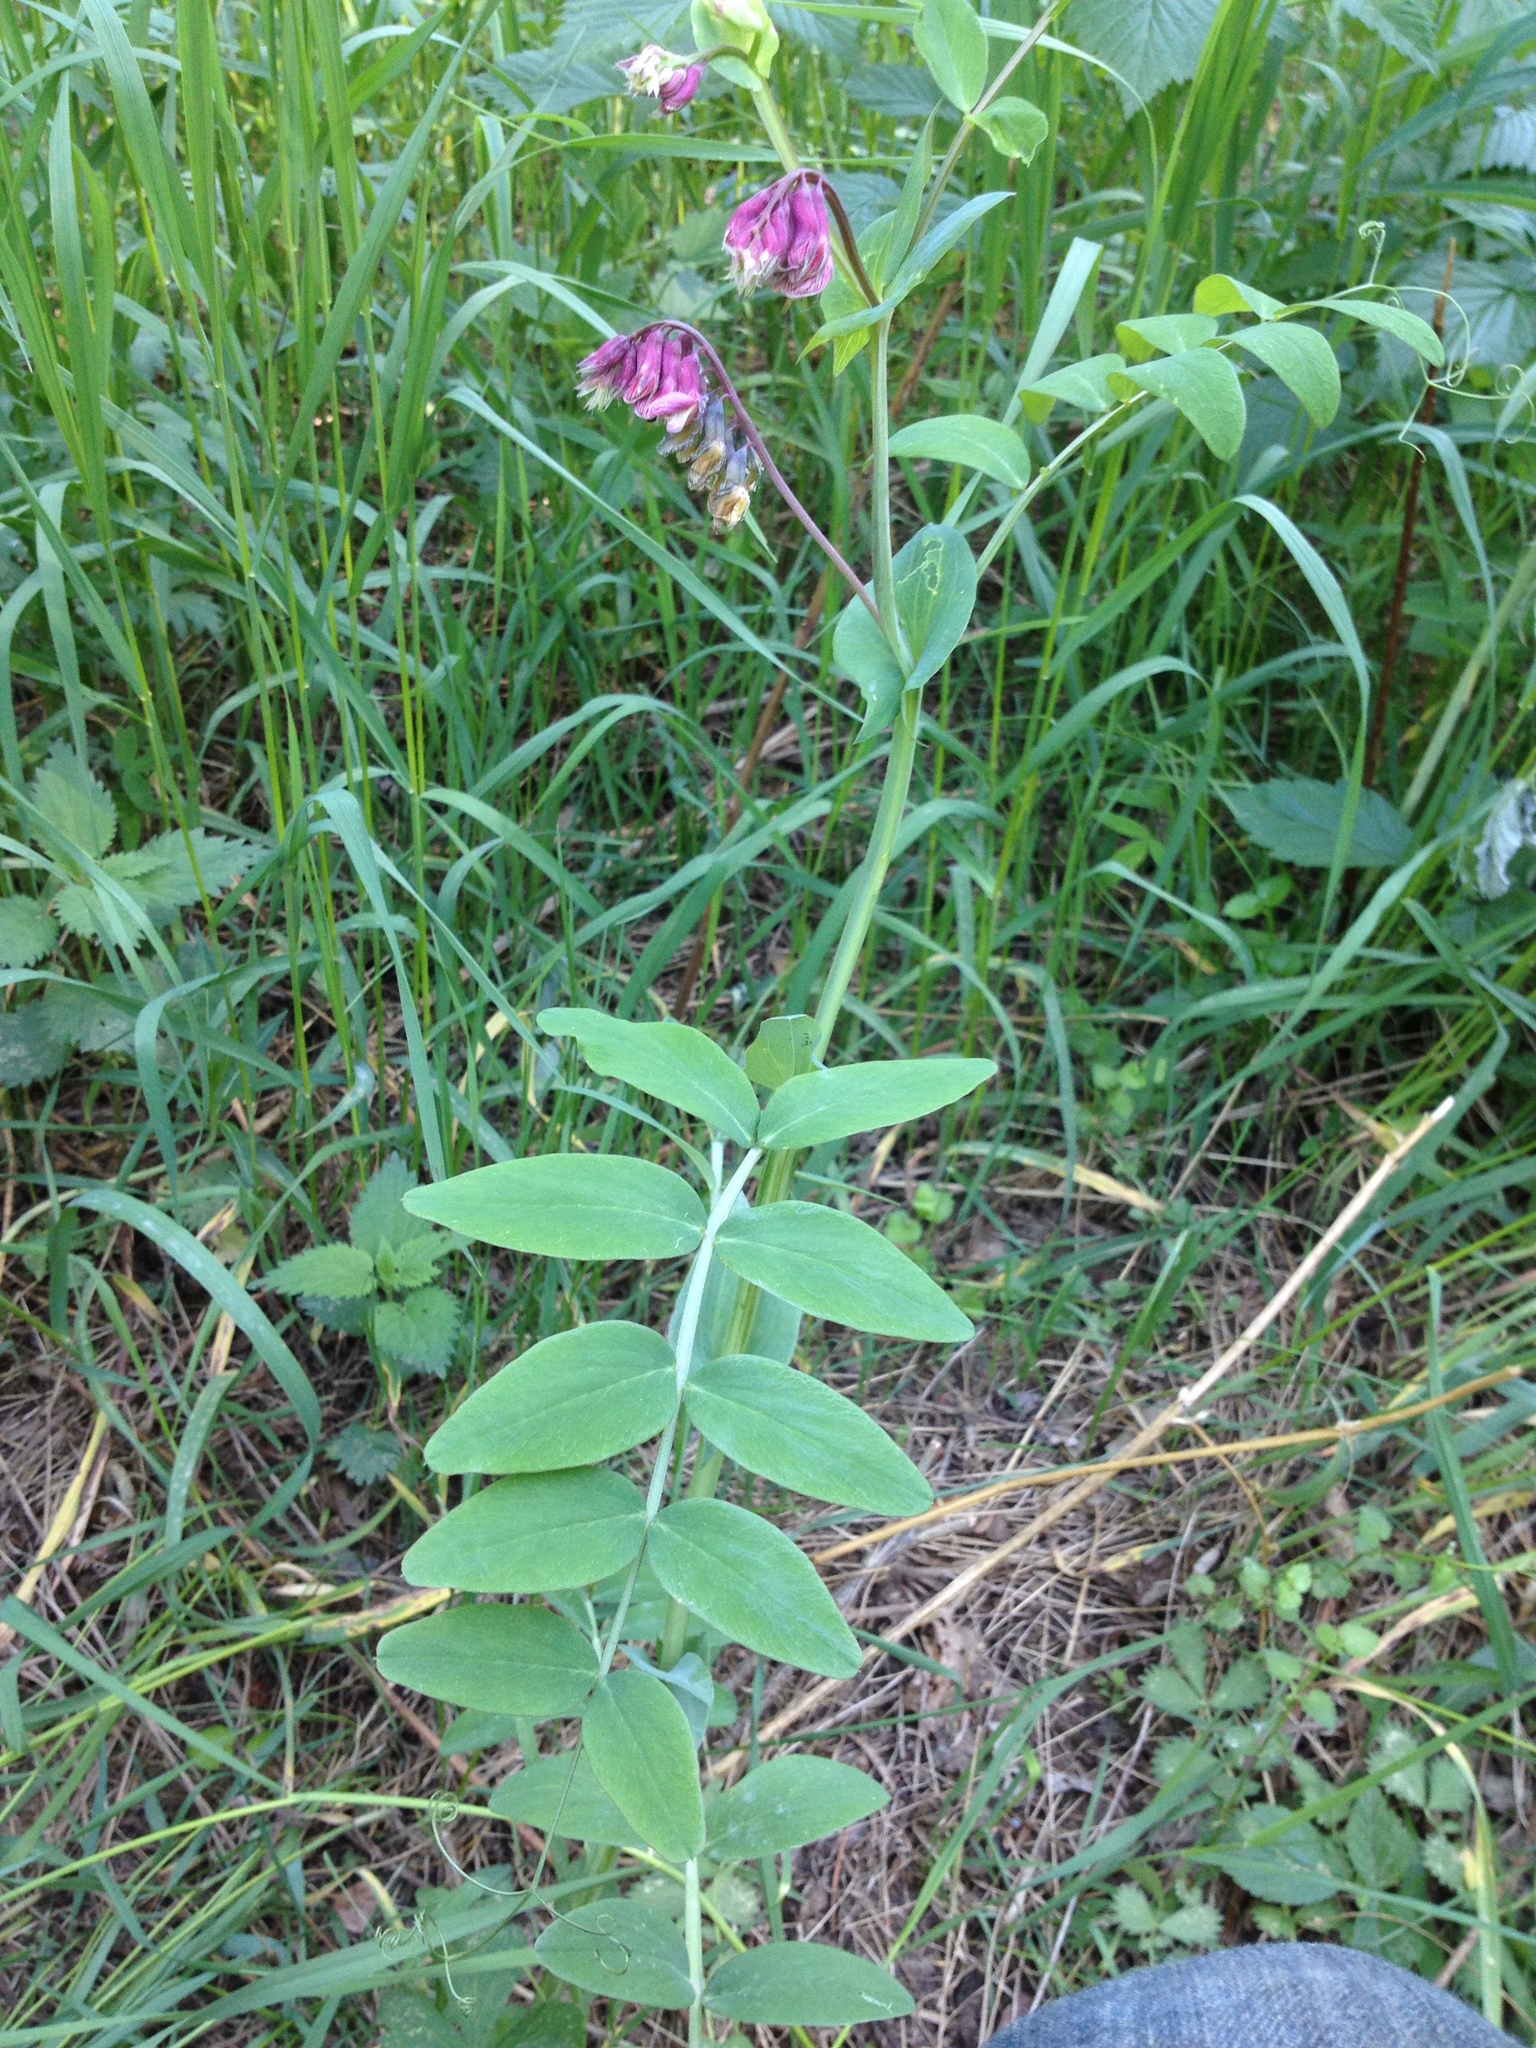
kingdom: Plantae
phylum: Tracheophyta
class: Magnoliopsida
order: Fabales
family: Fabaceae
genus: Lathyrus
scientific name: Lathyrus pisiformis
